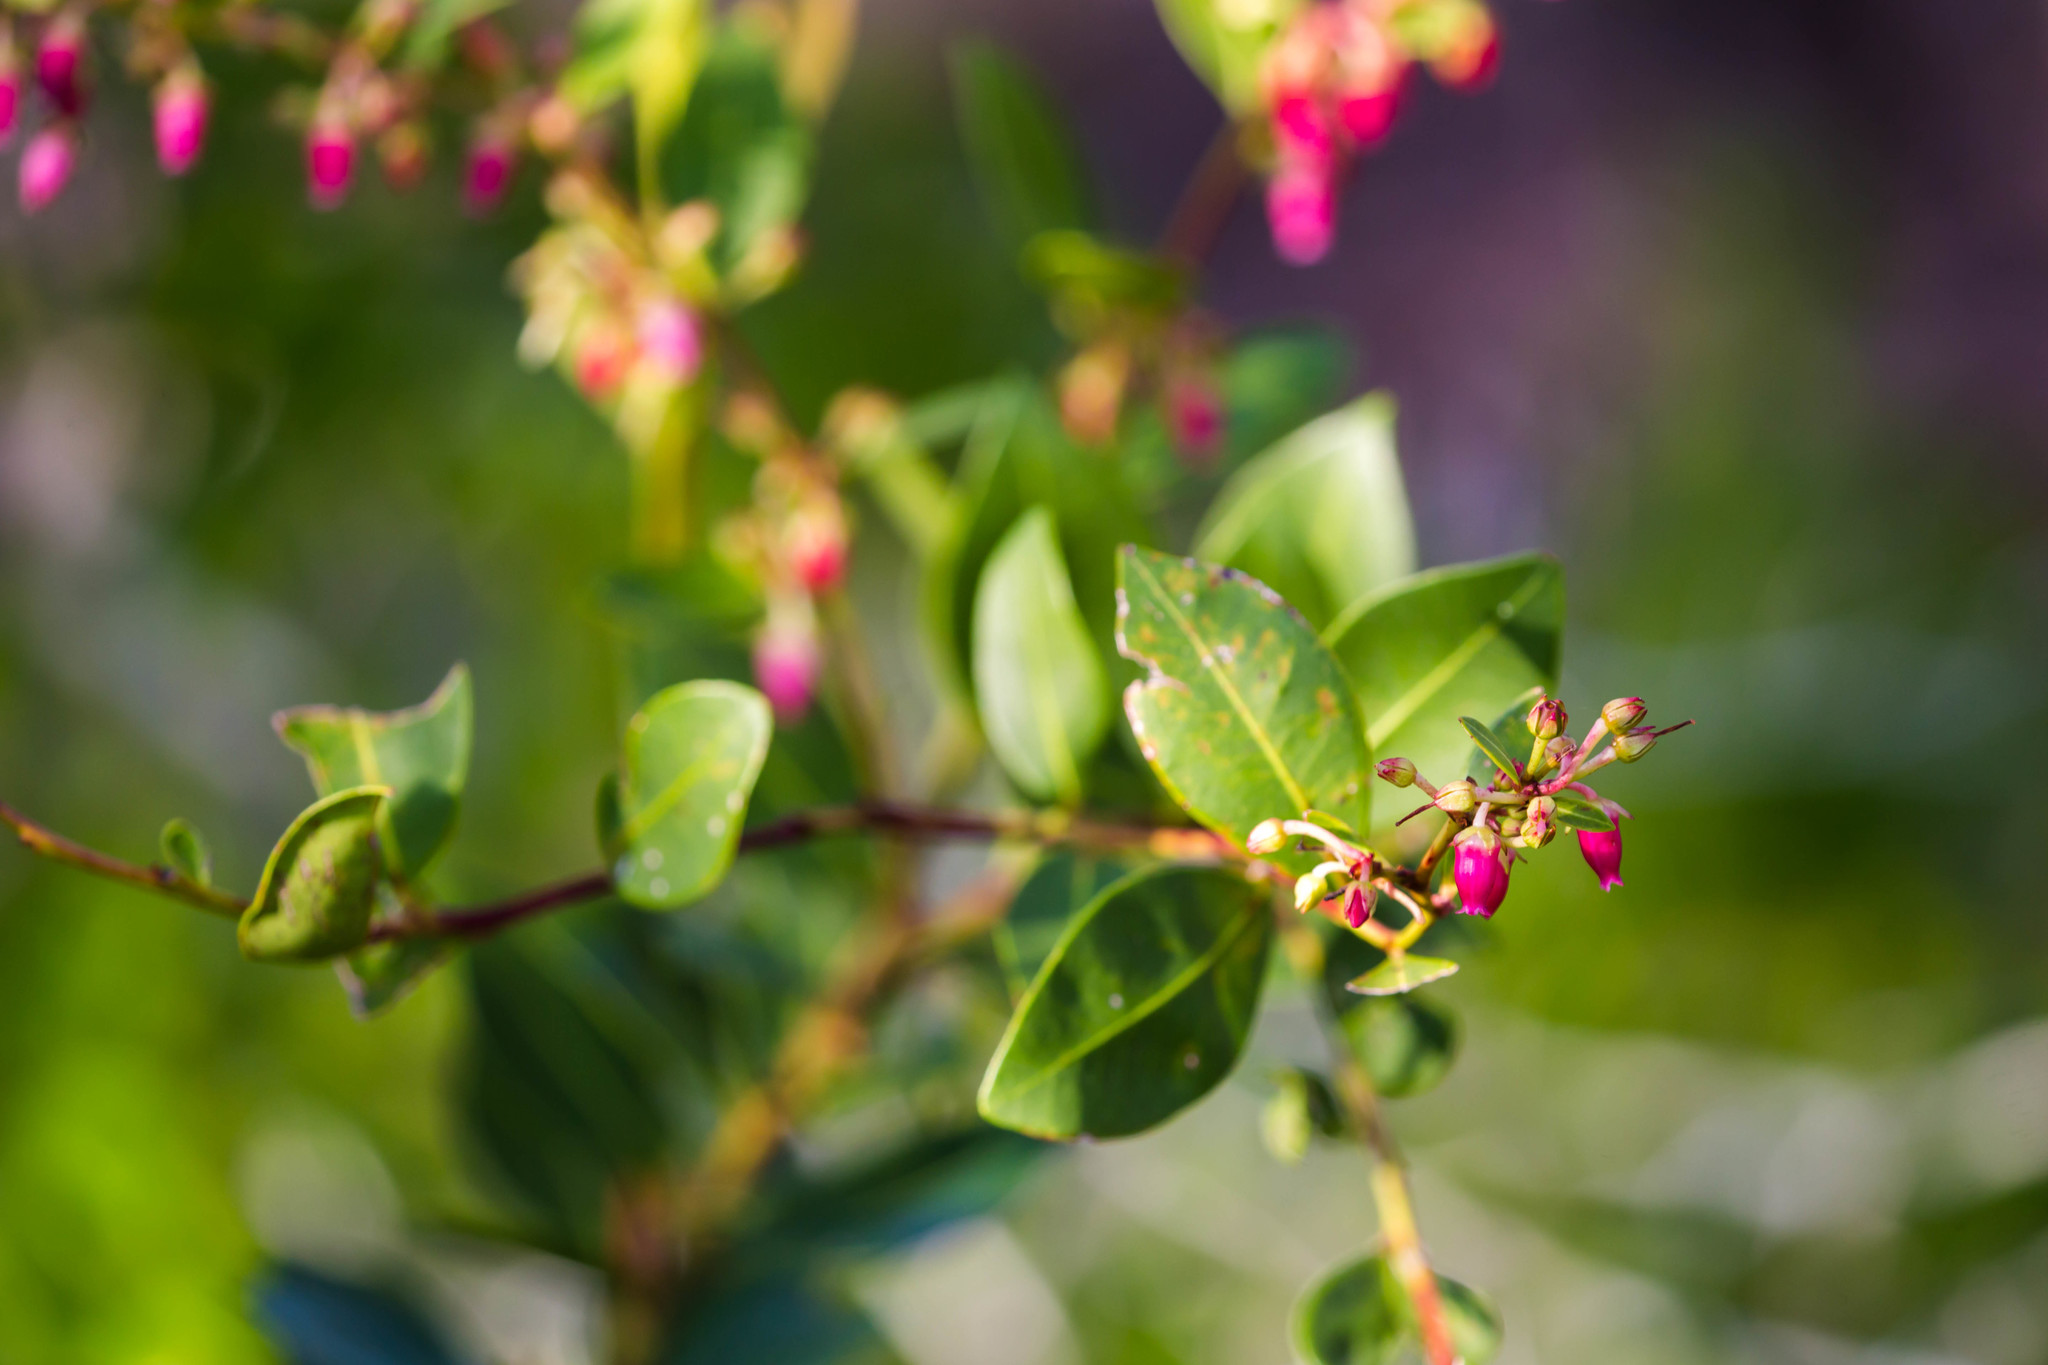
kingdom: Plantae
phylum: Tracheophyta
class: Magnoliopsida
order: Ericales
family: Ericaceae
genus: Lyonia
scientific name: Lyonia lucida
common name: Fetterbush
